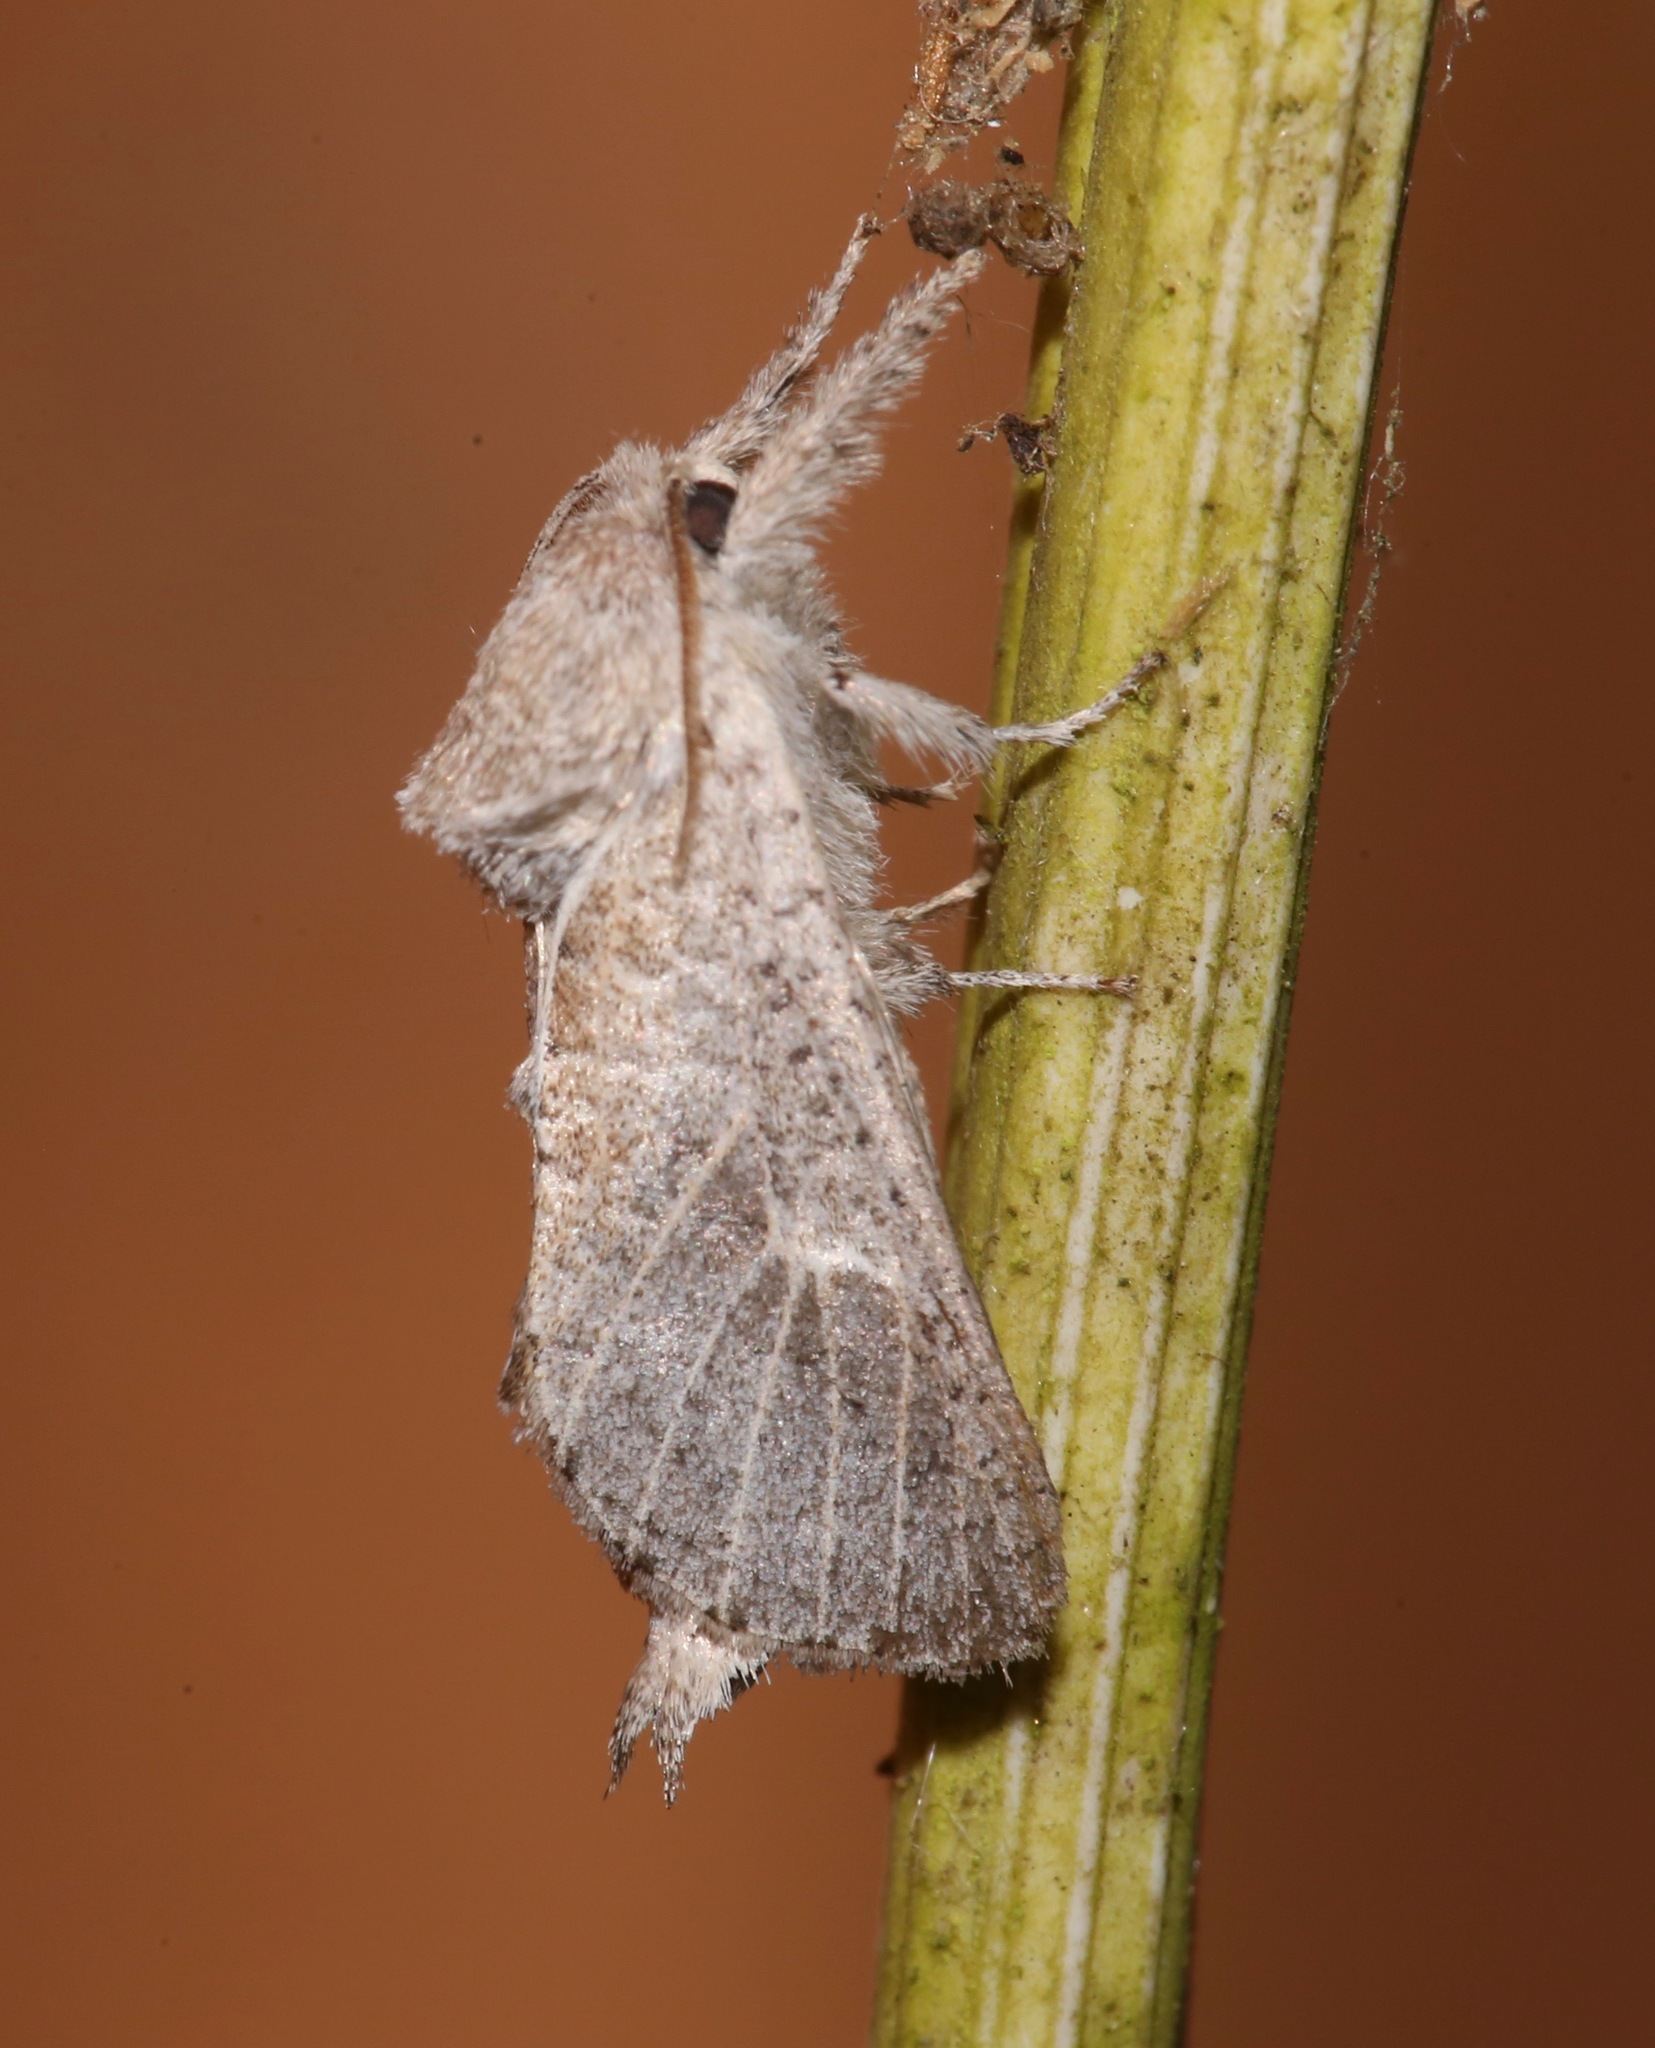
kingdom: Animalia
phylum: Arthropoda
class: Insecta
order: Lepidoptera
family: Cossidae
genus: Givira
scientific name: Givira anna
